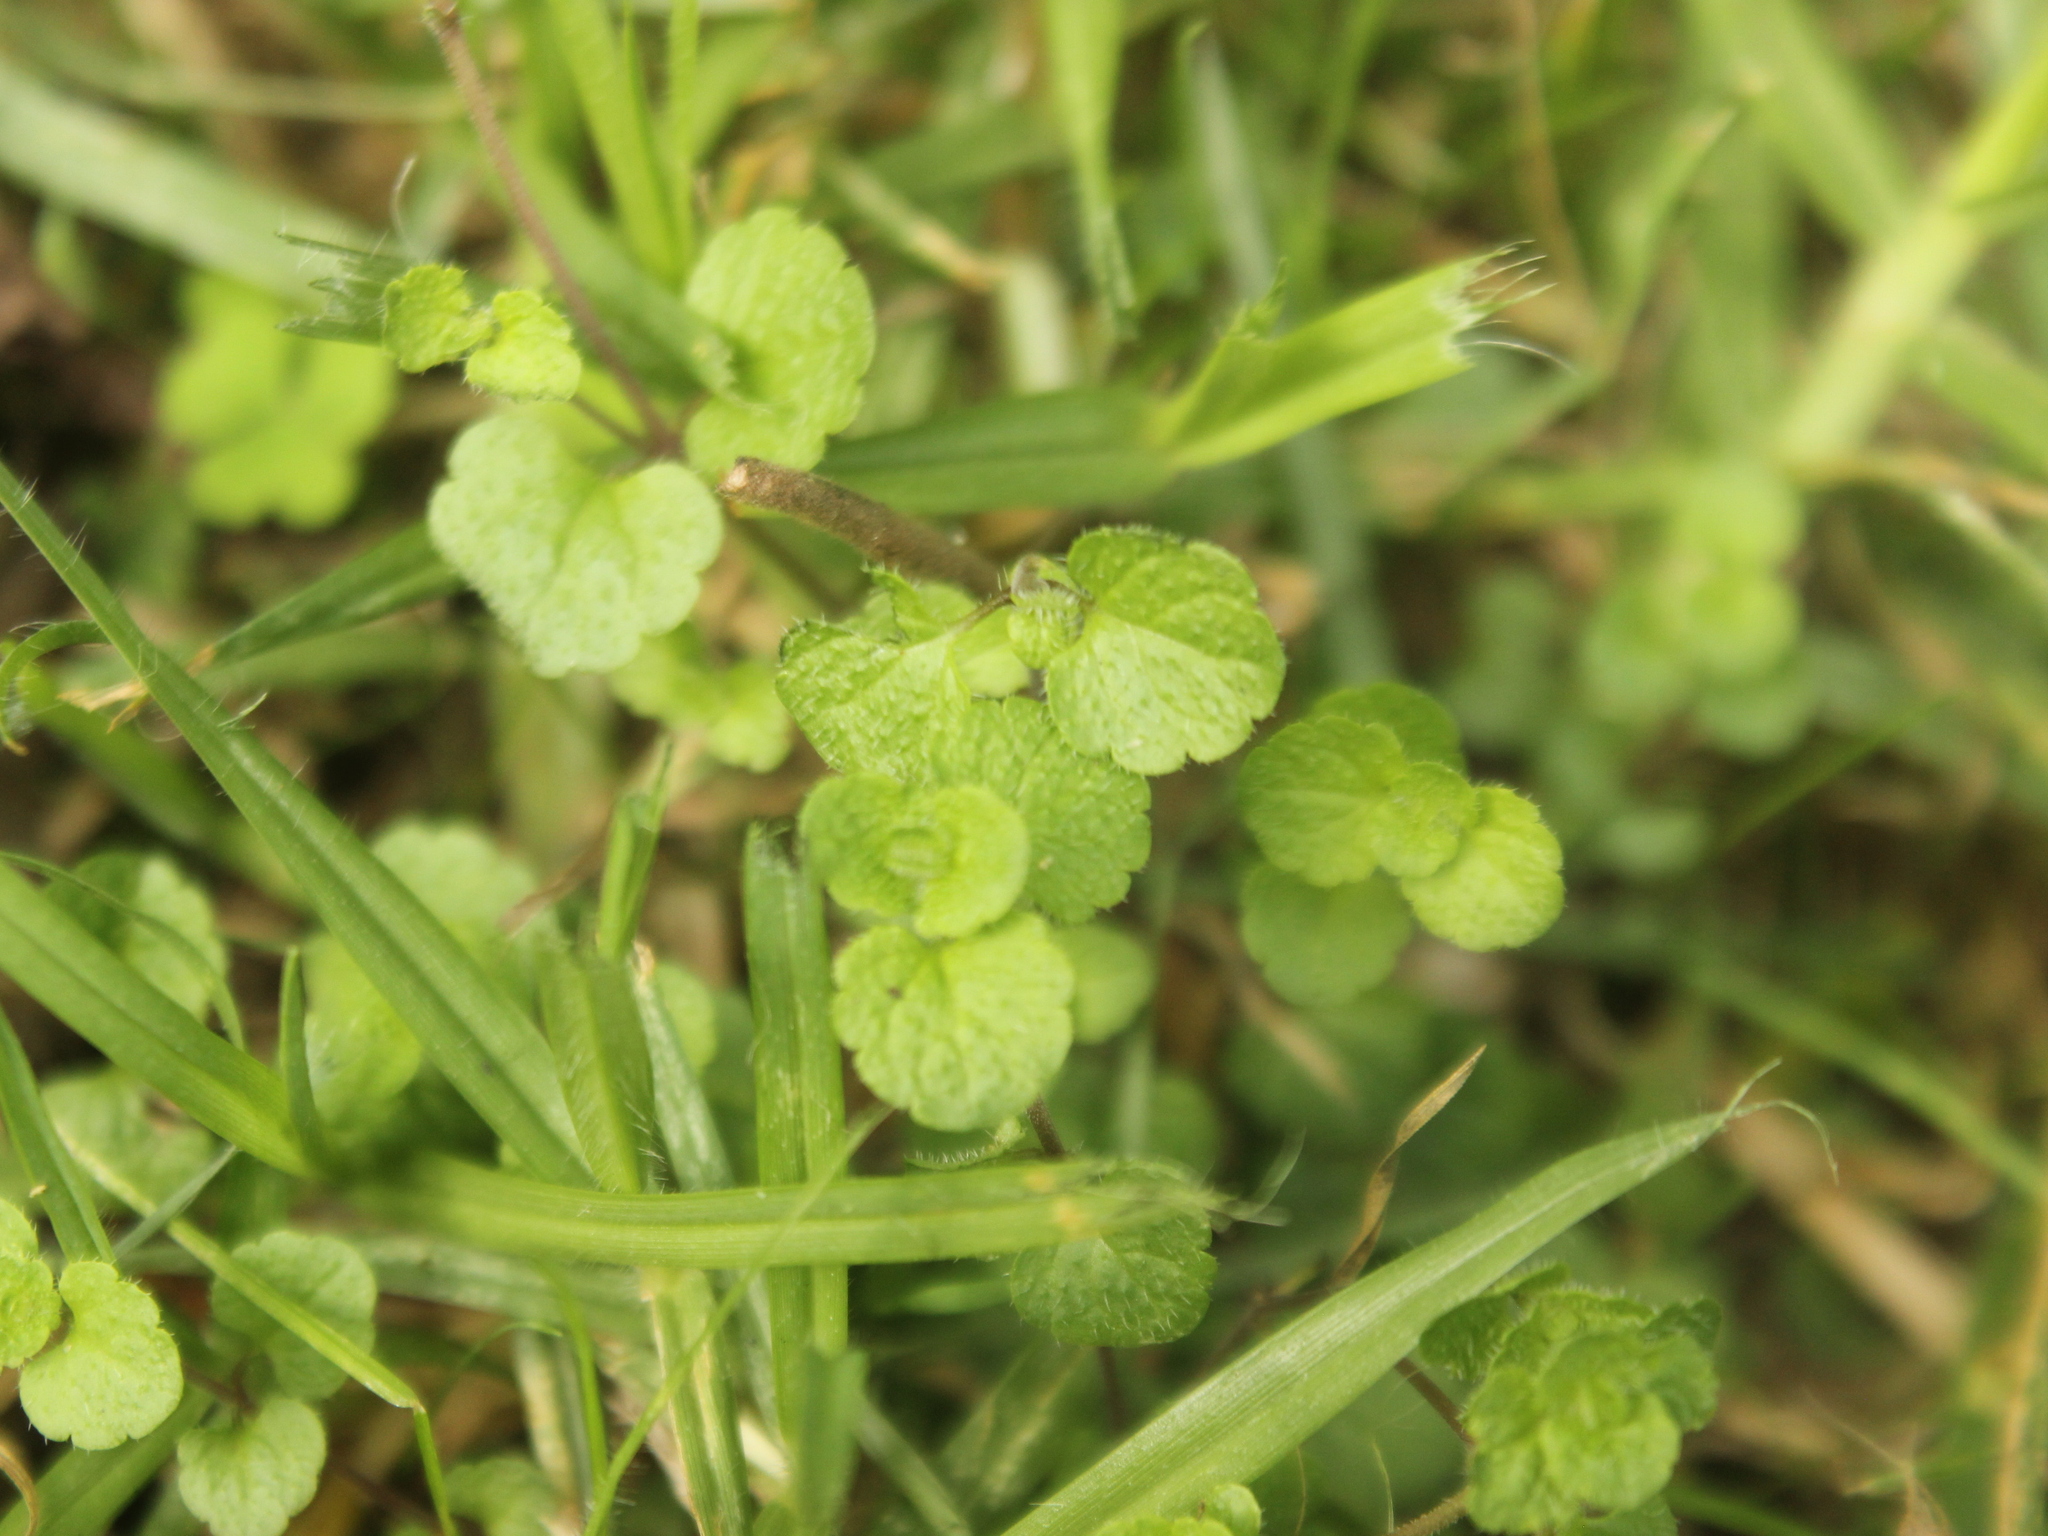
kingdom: Plantae
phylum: Tracheophyta
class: Magnoliopsida
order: Lamiales
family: Plantaginaceae
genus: Veronica
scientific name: Veronica filiformis
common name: Slender speedwell
